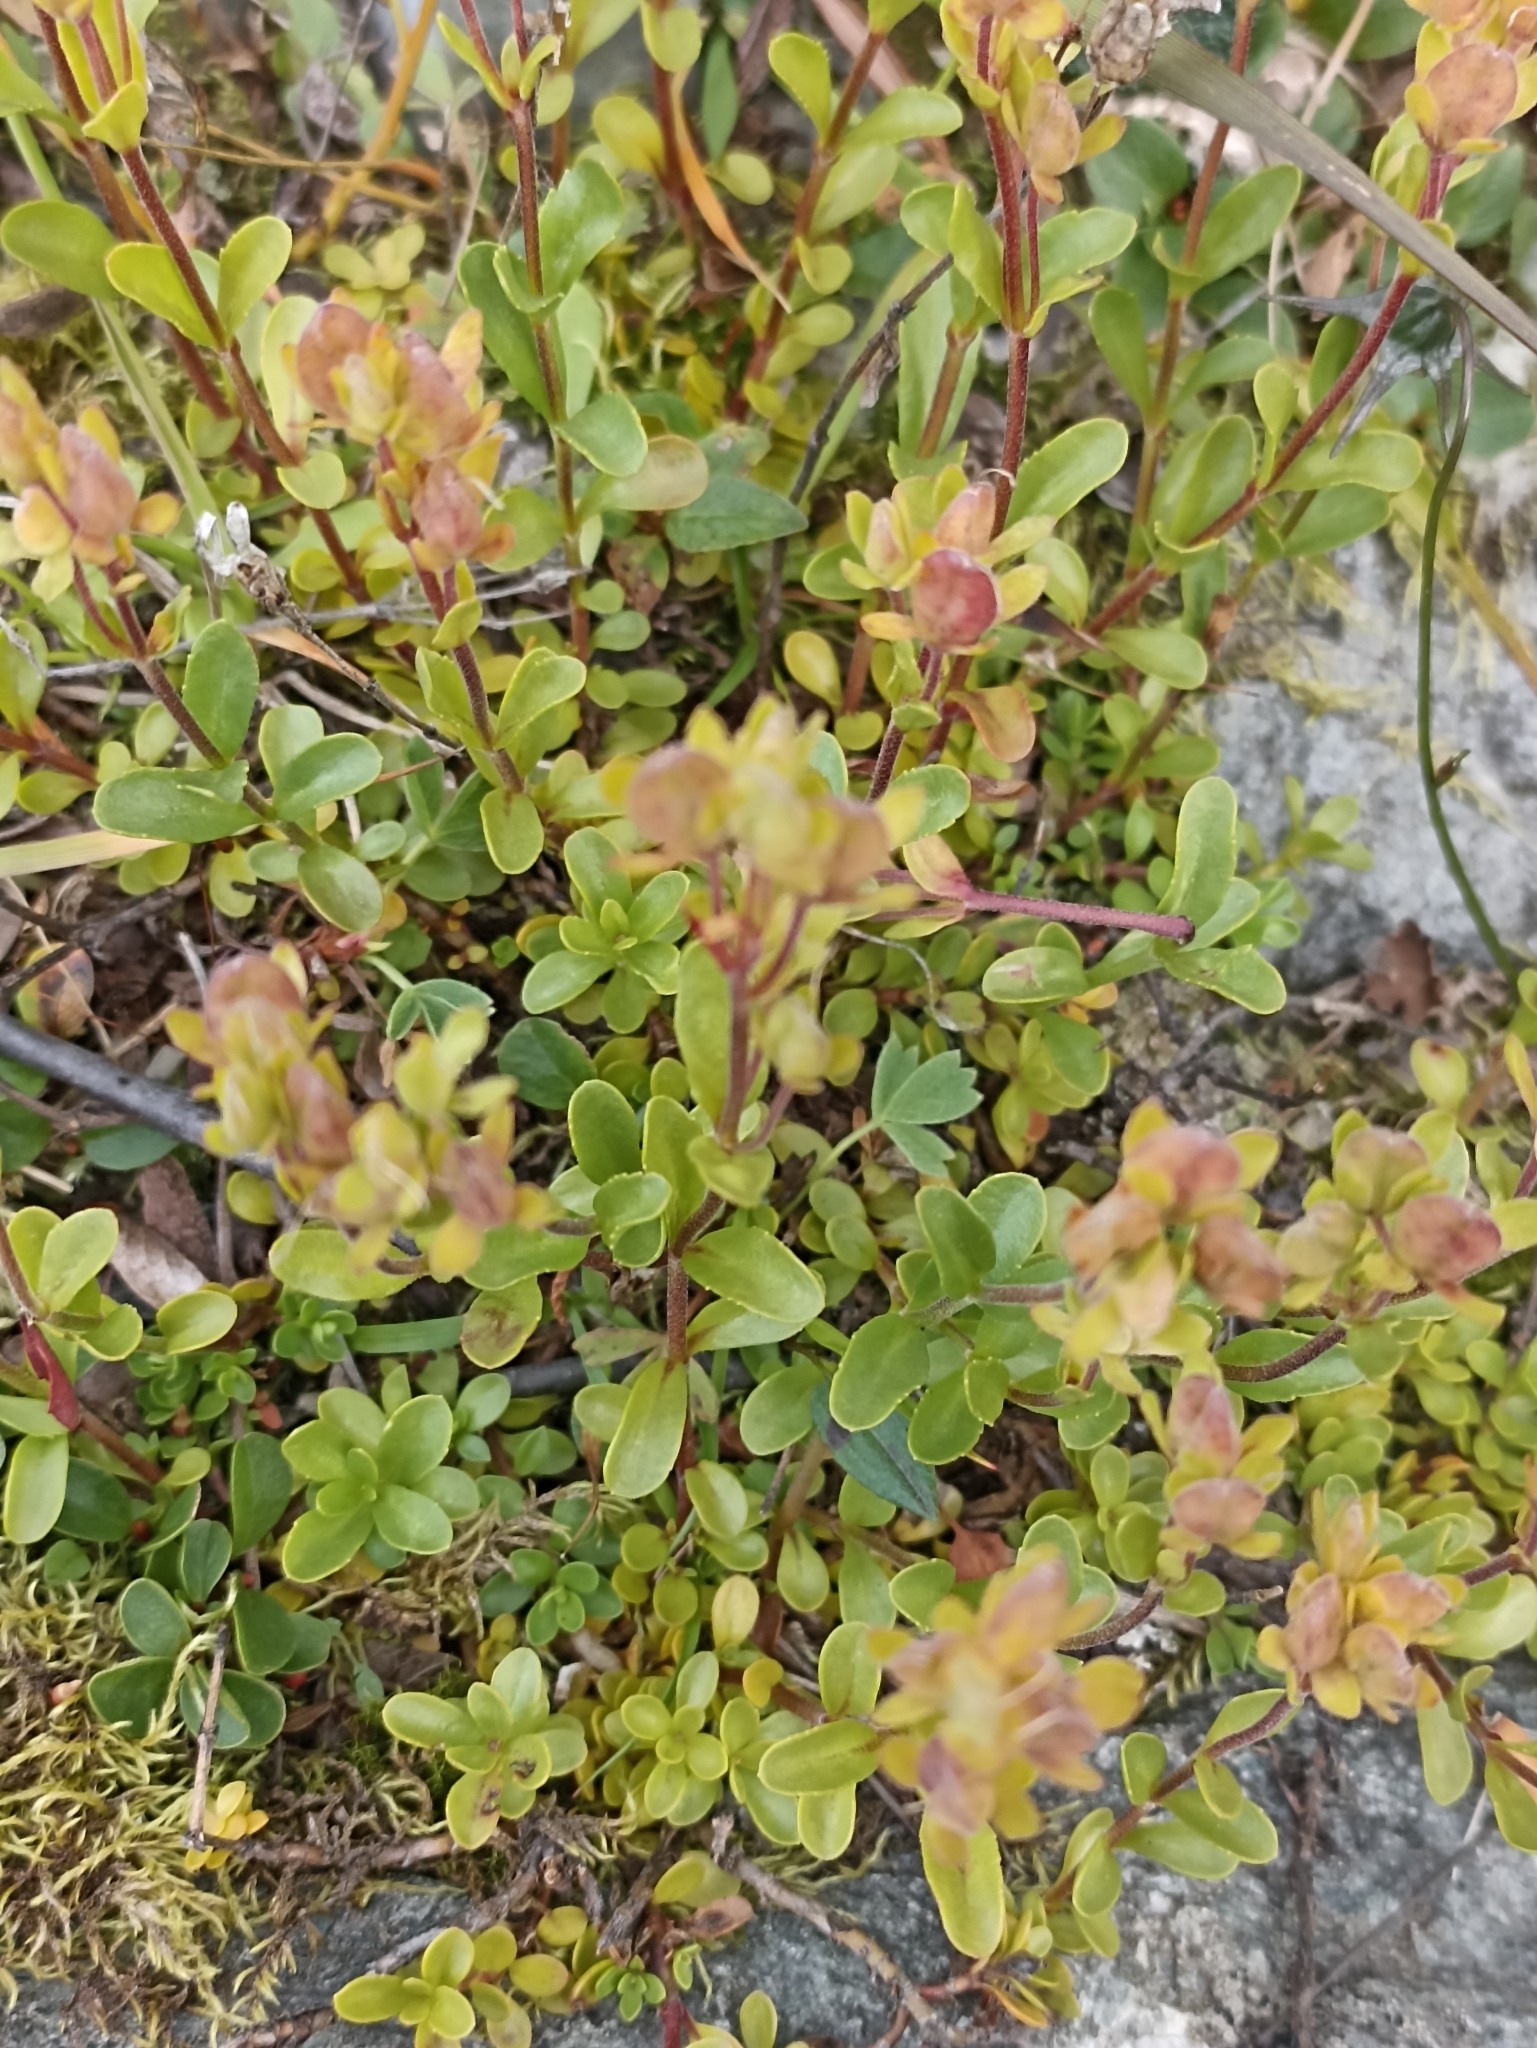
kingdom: Plantae
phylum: Tracheophyta
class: Magnoliopsida
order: Lamiales
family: Plantaginaceae
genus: Veronica
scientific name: Veronica fruticans
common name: Rock speedwell
